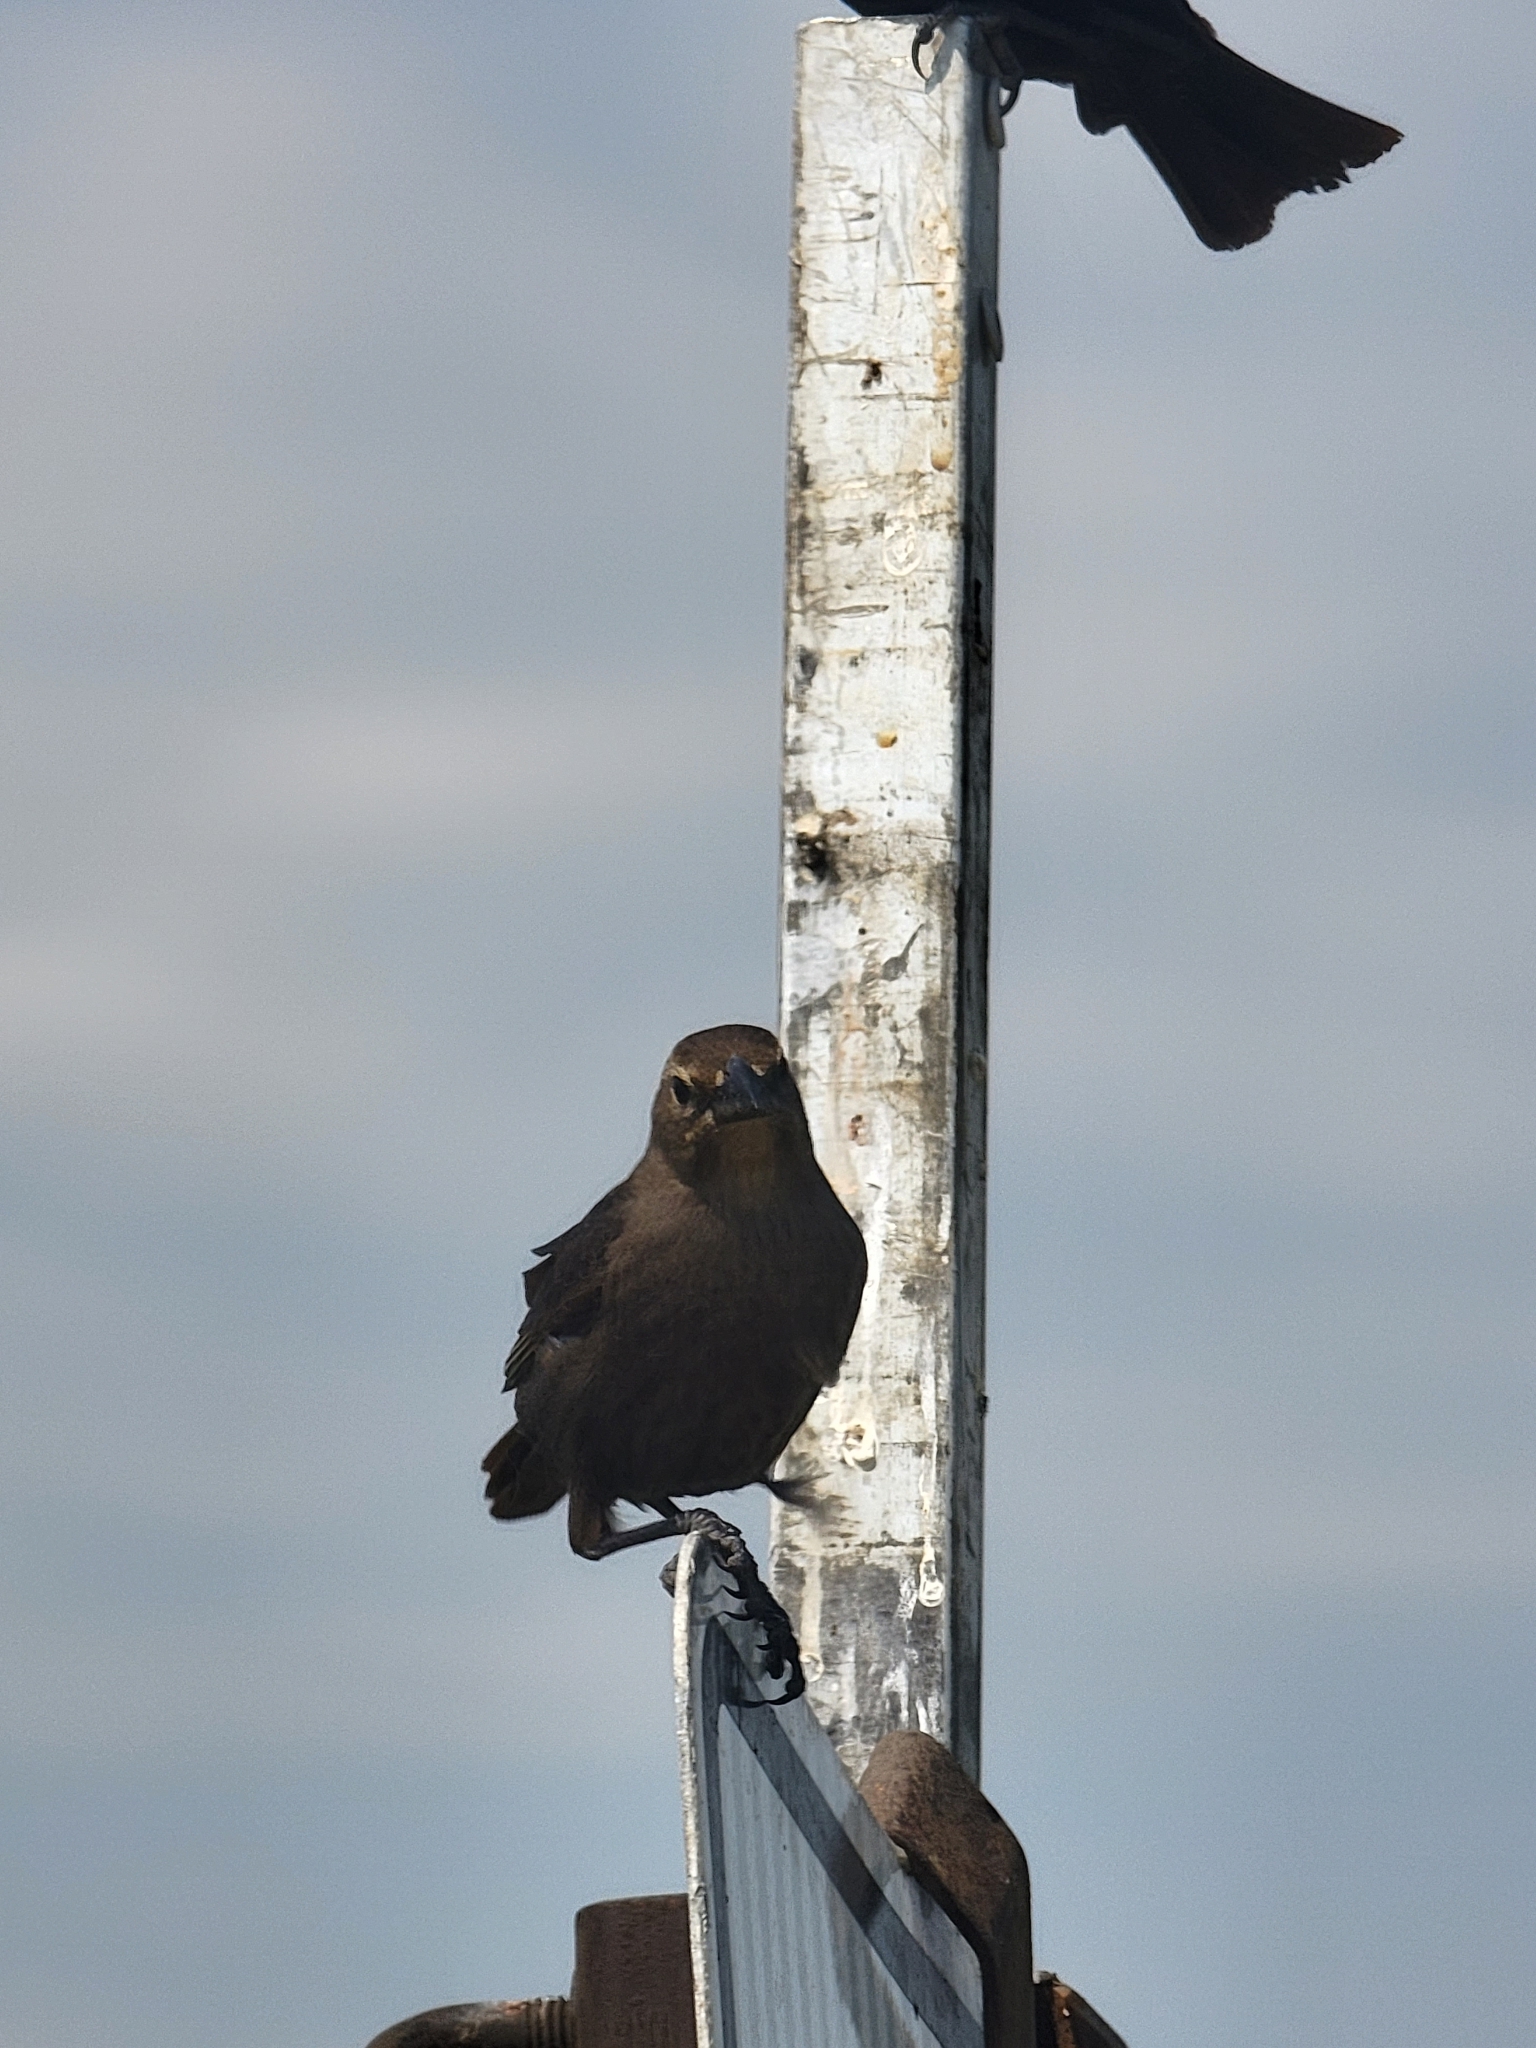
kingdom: Animalia
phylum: Chordata
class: Aves
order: Passeriformes
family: Icteridae
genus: Molothrus
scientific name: Molothrus ater
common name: Brown-headed cowbird
